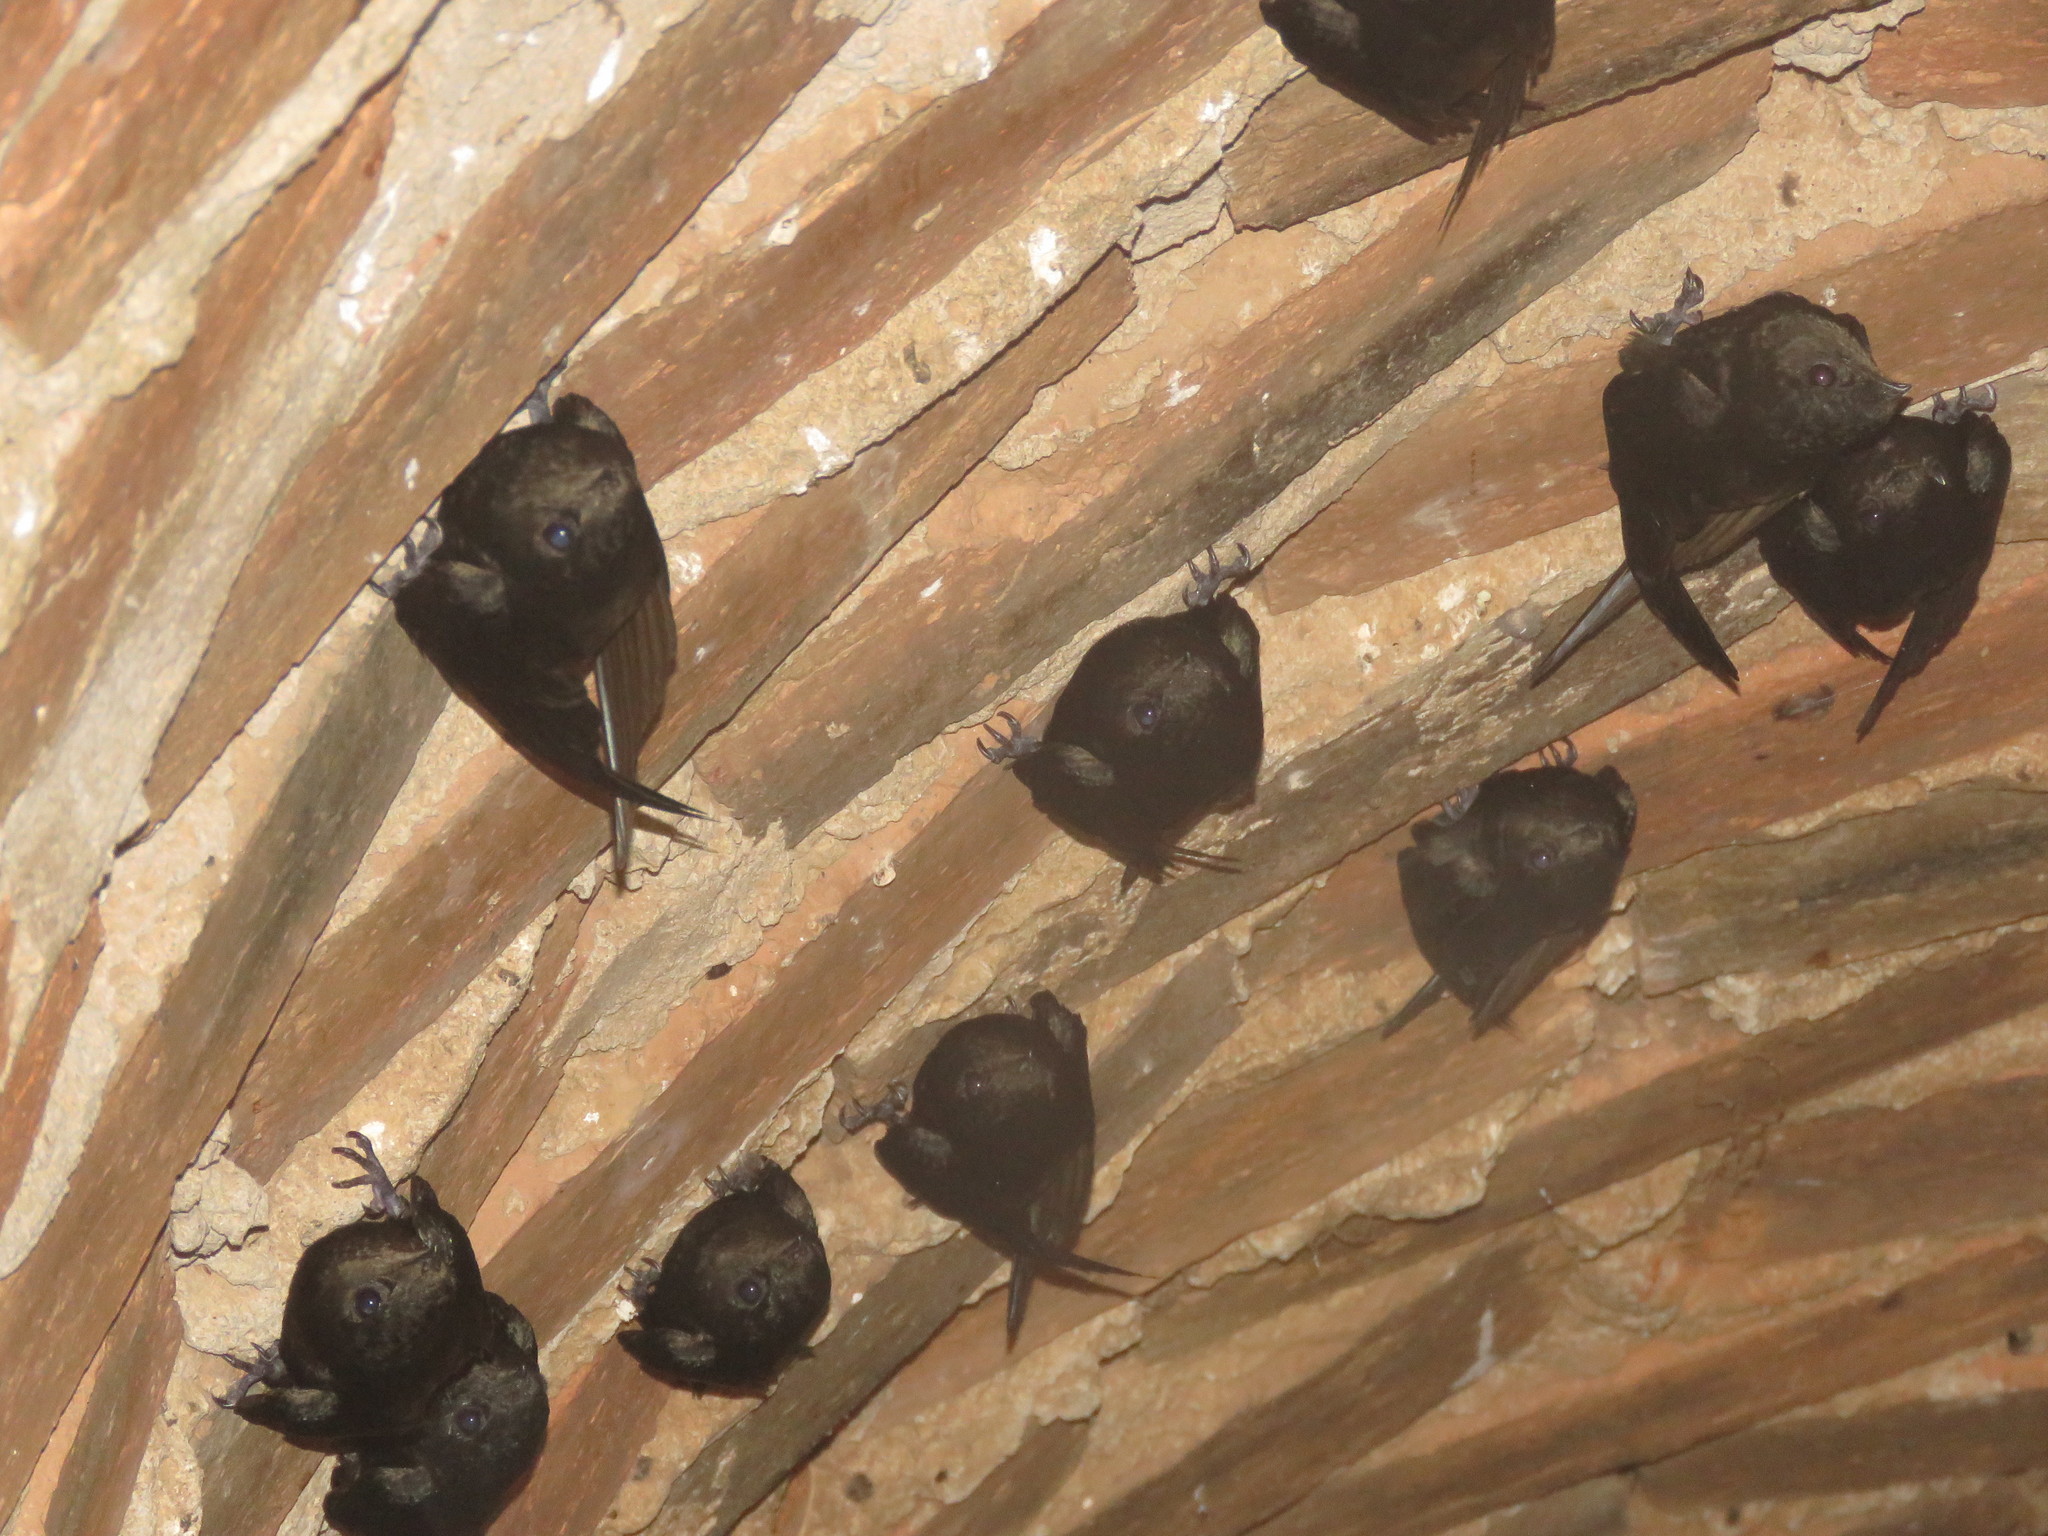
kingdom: Animalia
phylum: Chordata
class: Aves
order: Apodiformes
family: Apodidae
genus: Chaetura
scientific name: Chaetura brachyura
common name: Short-tailed swift
